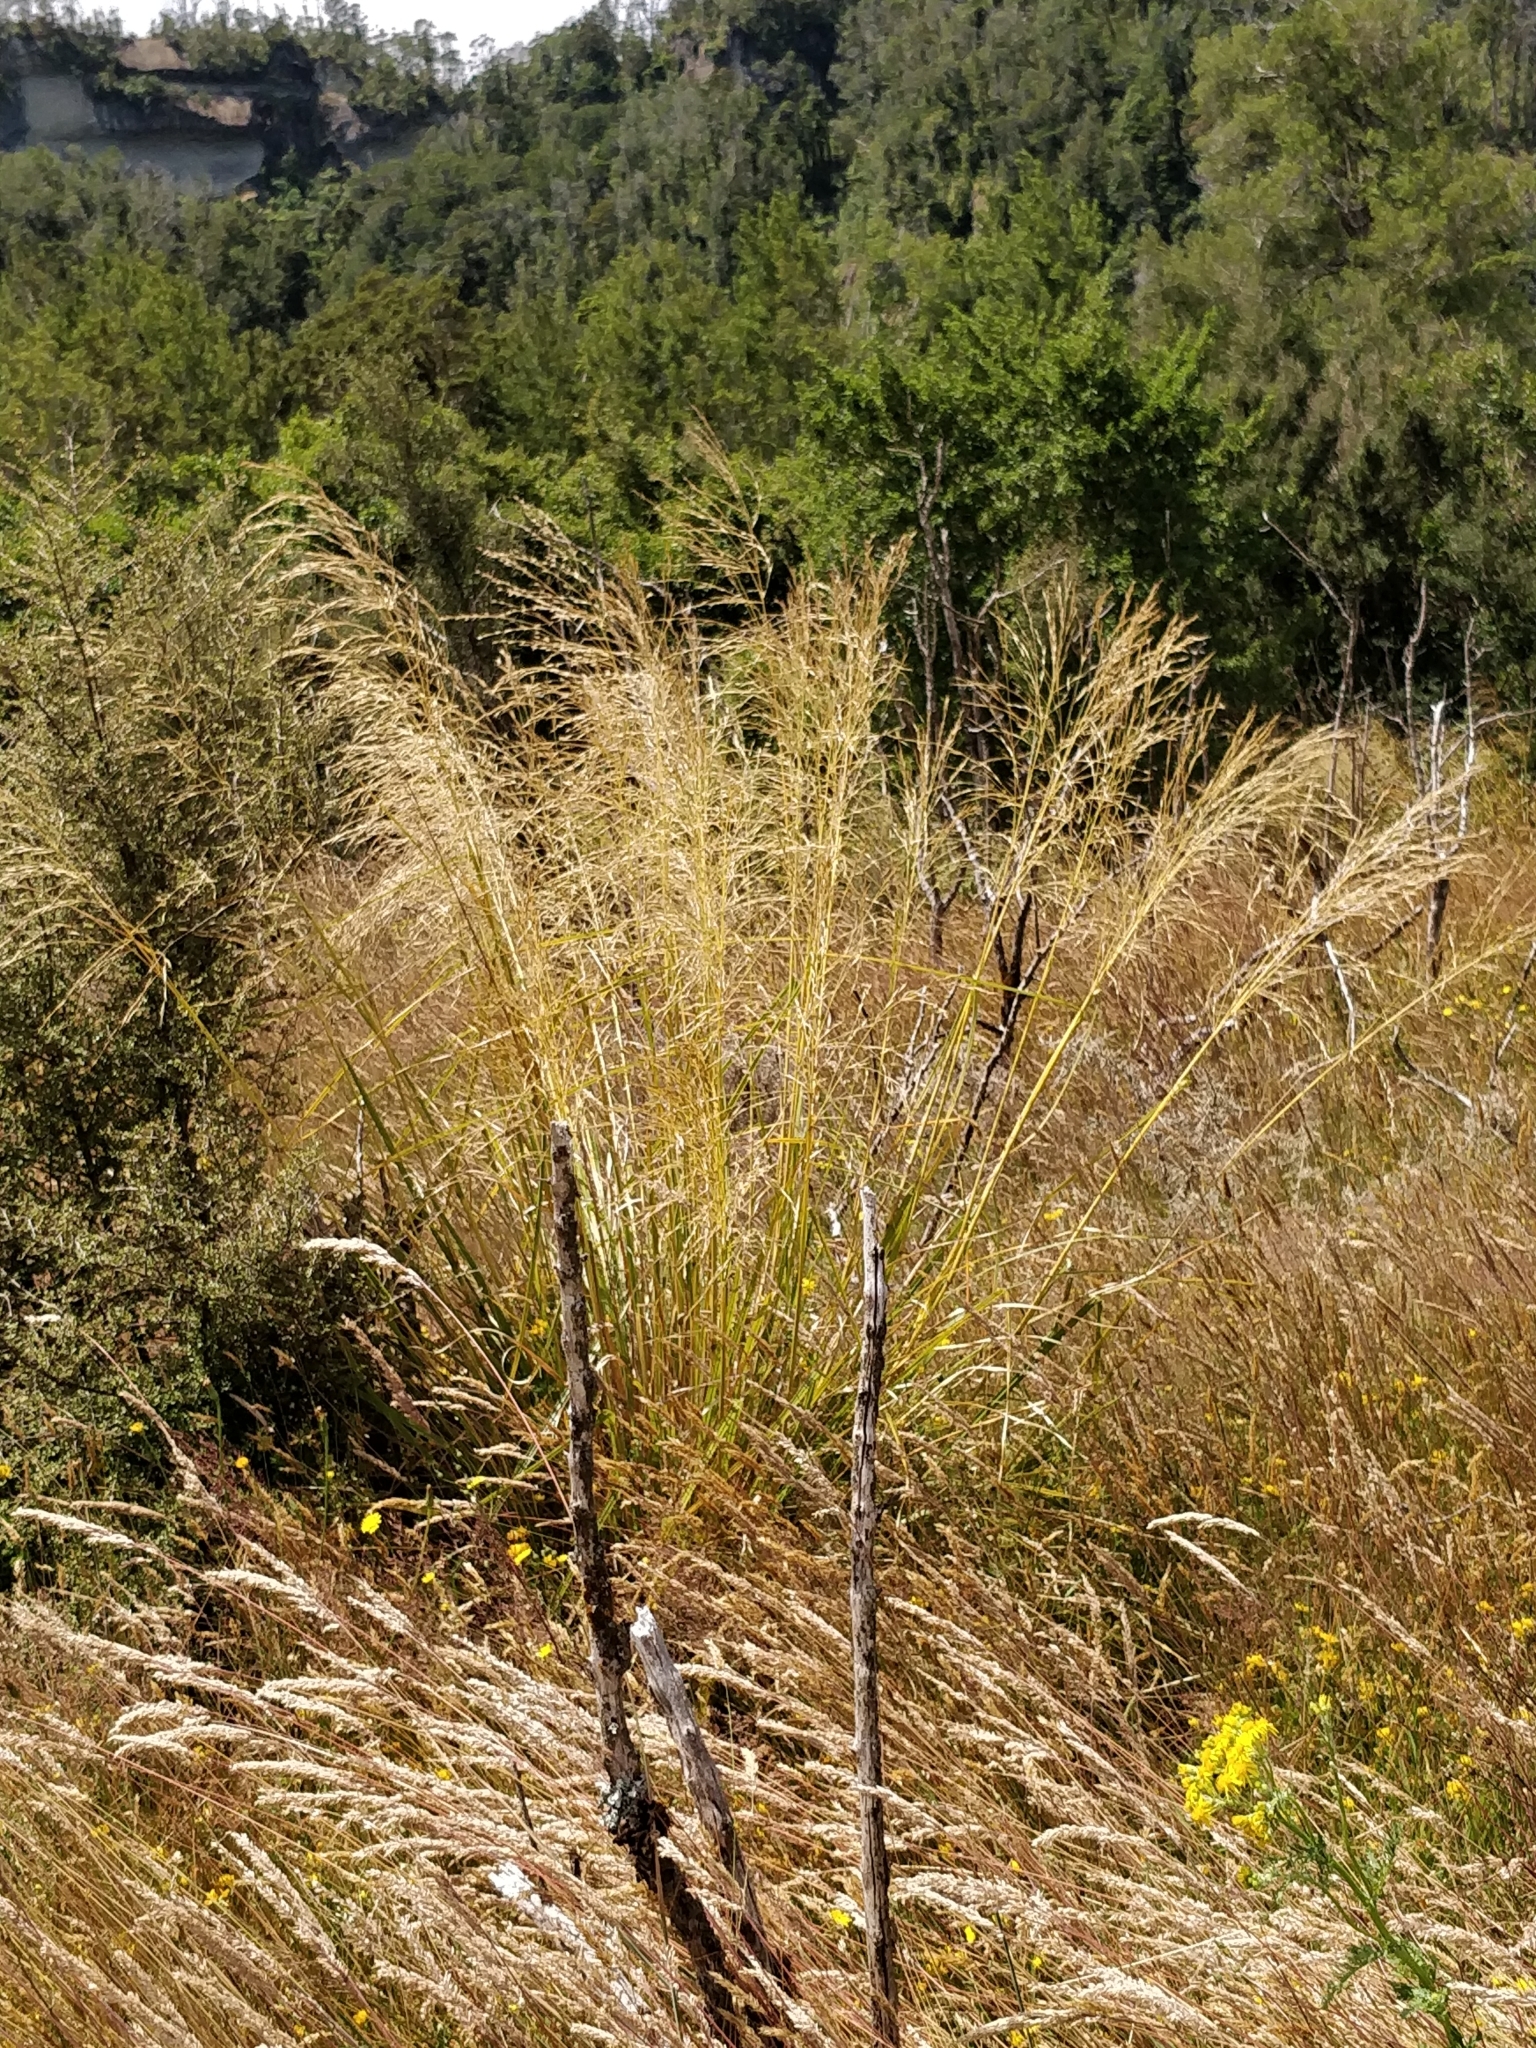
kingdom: Plantae
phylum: Tracheophyta
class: Liliopsida
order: Poales
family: Poaceae
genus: Chionochloa
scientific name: Chionochloa conspicua
